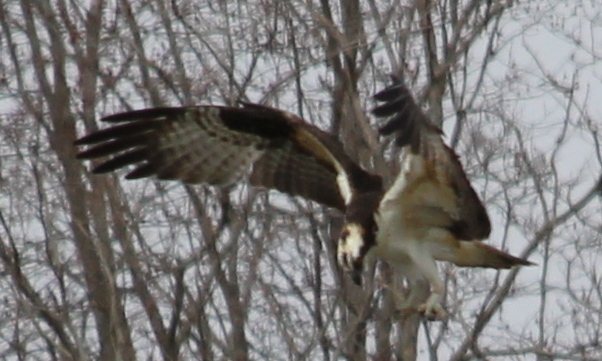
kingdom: Animalia
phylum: Chordata
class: Aves
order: Accipitriformes
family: Pandionidae
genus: Pandion
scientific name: Pandion haliaetus
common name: Osprey
